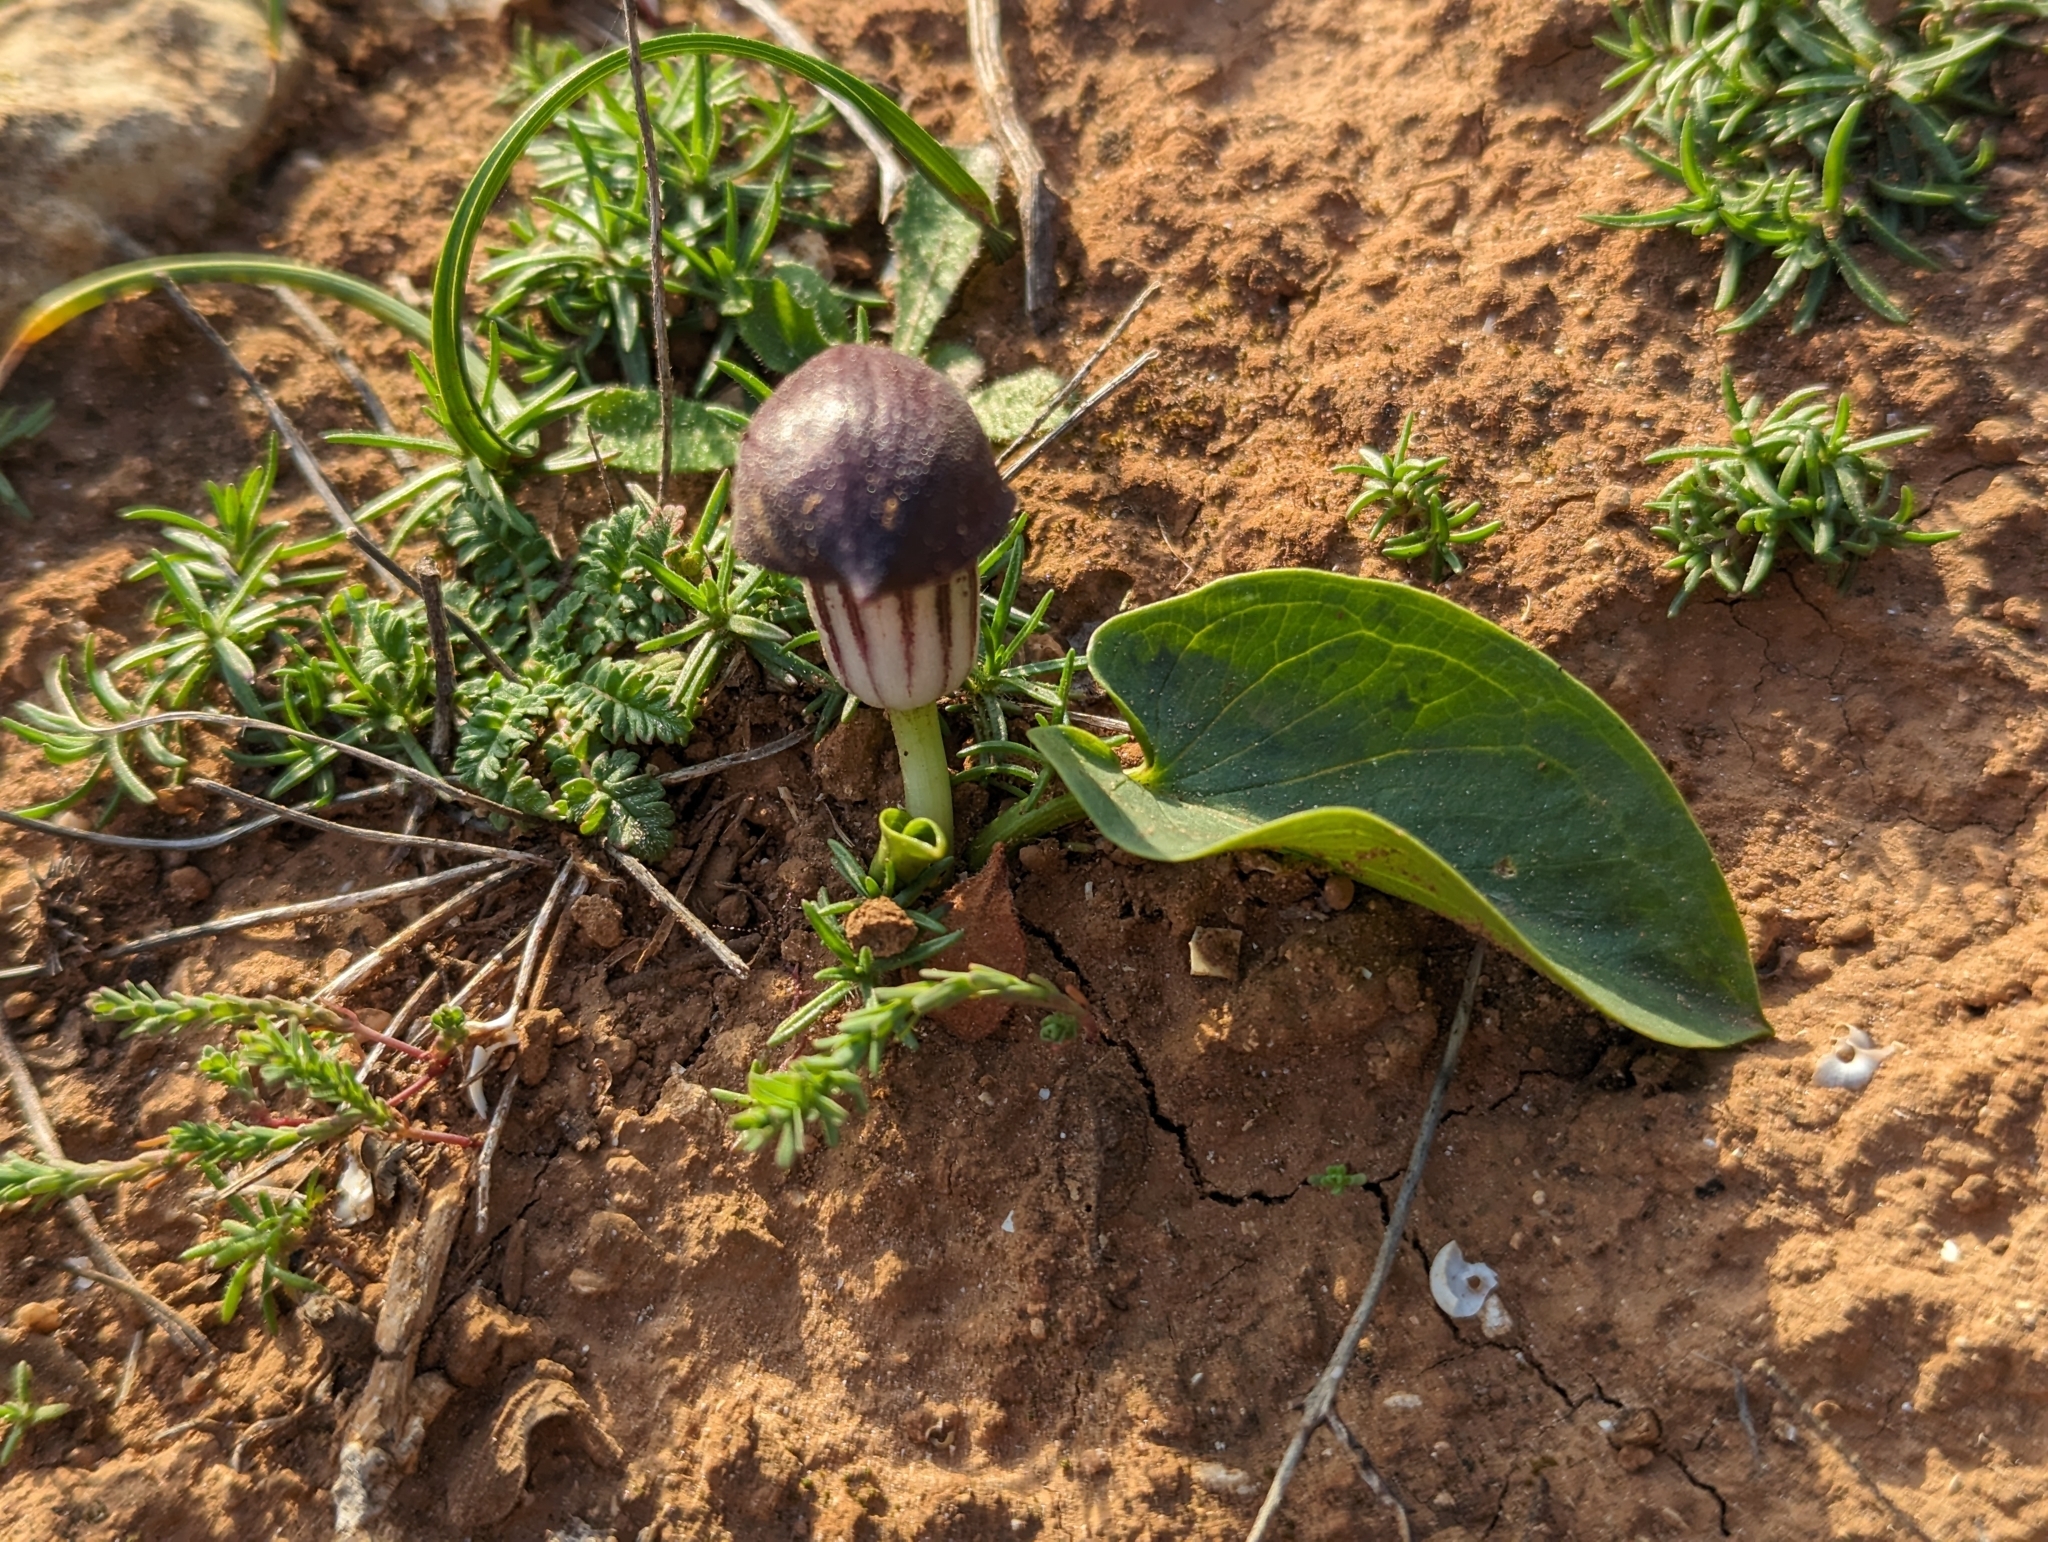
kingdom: Plantae
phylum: Tracheophyta
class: Liliopsida
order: Alismatales
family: Araceae
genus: Arisarum
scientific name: Arisarum simorrhinum
